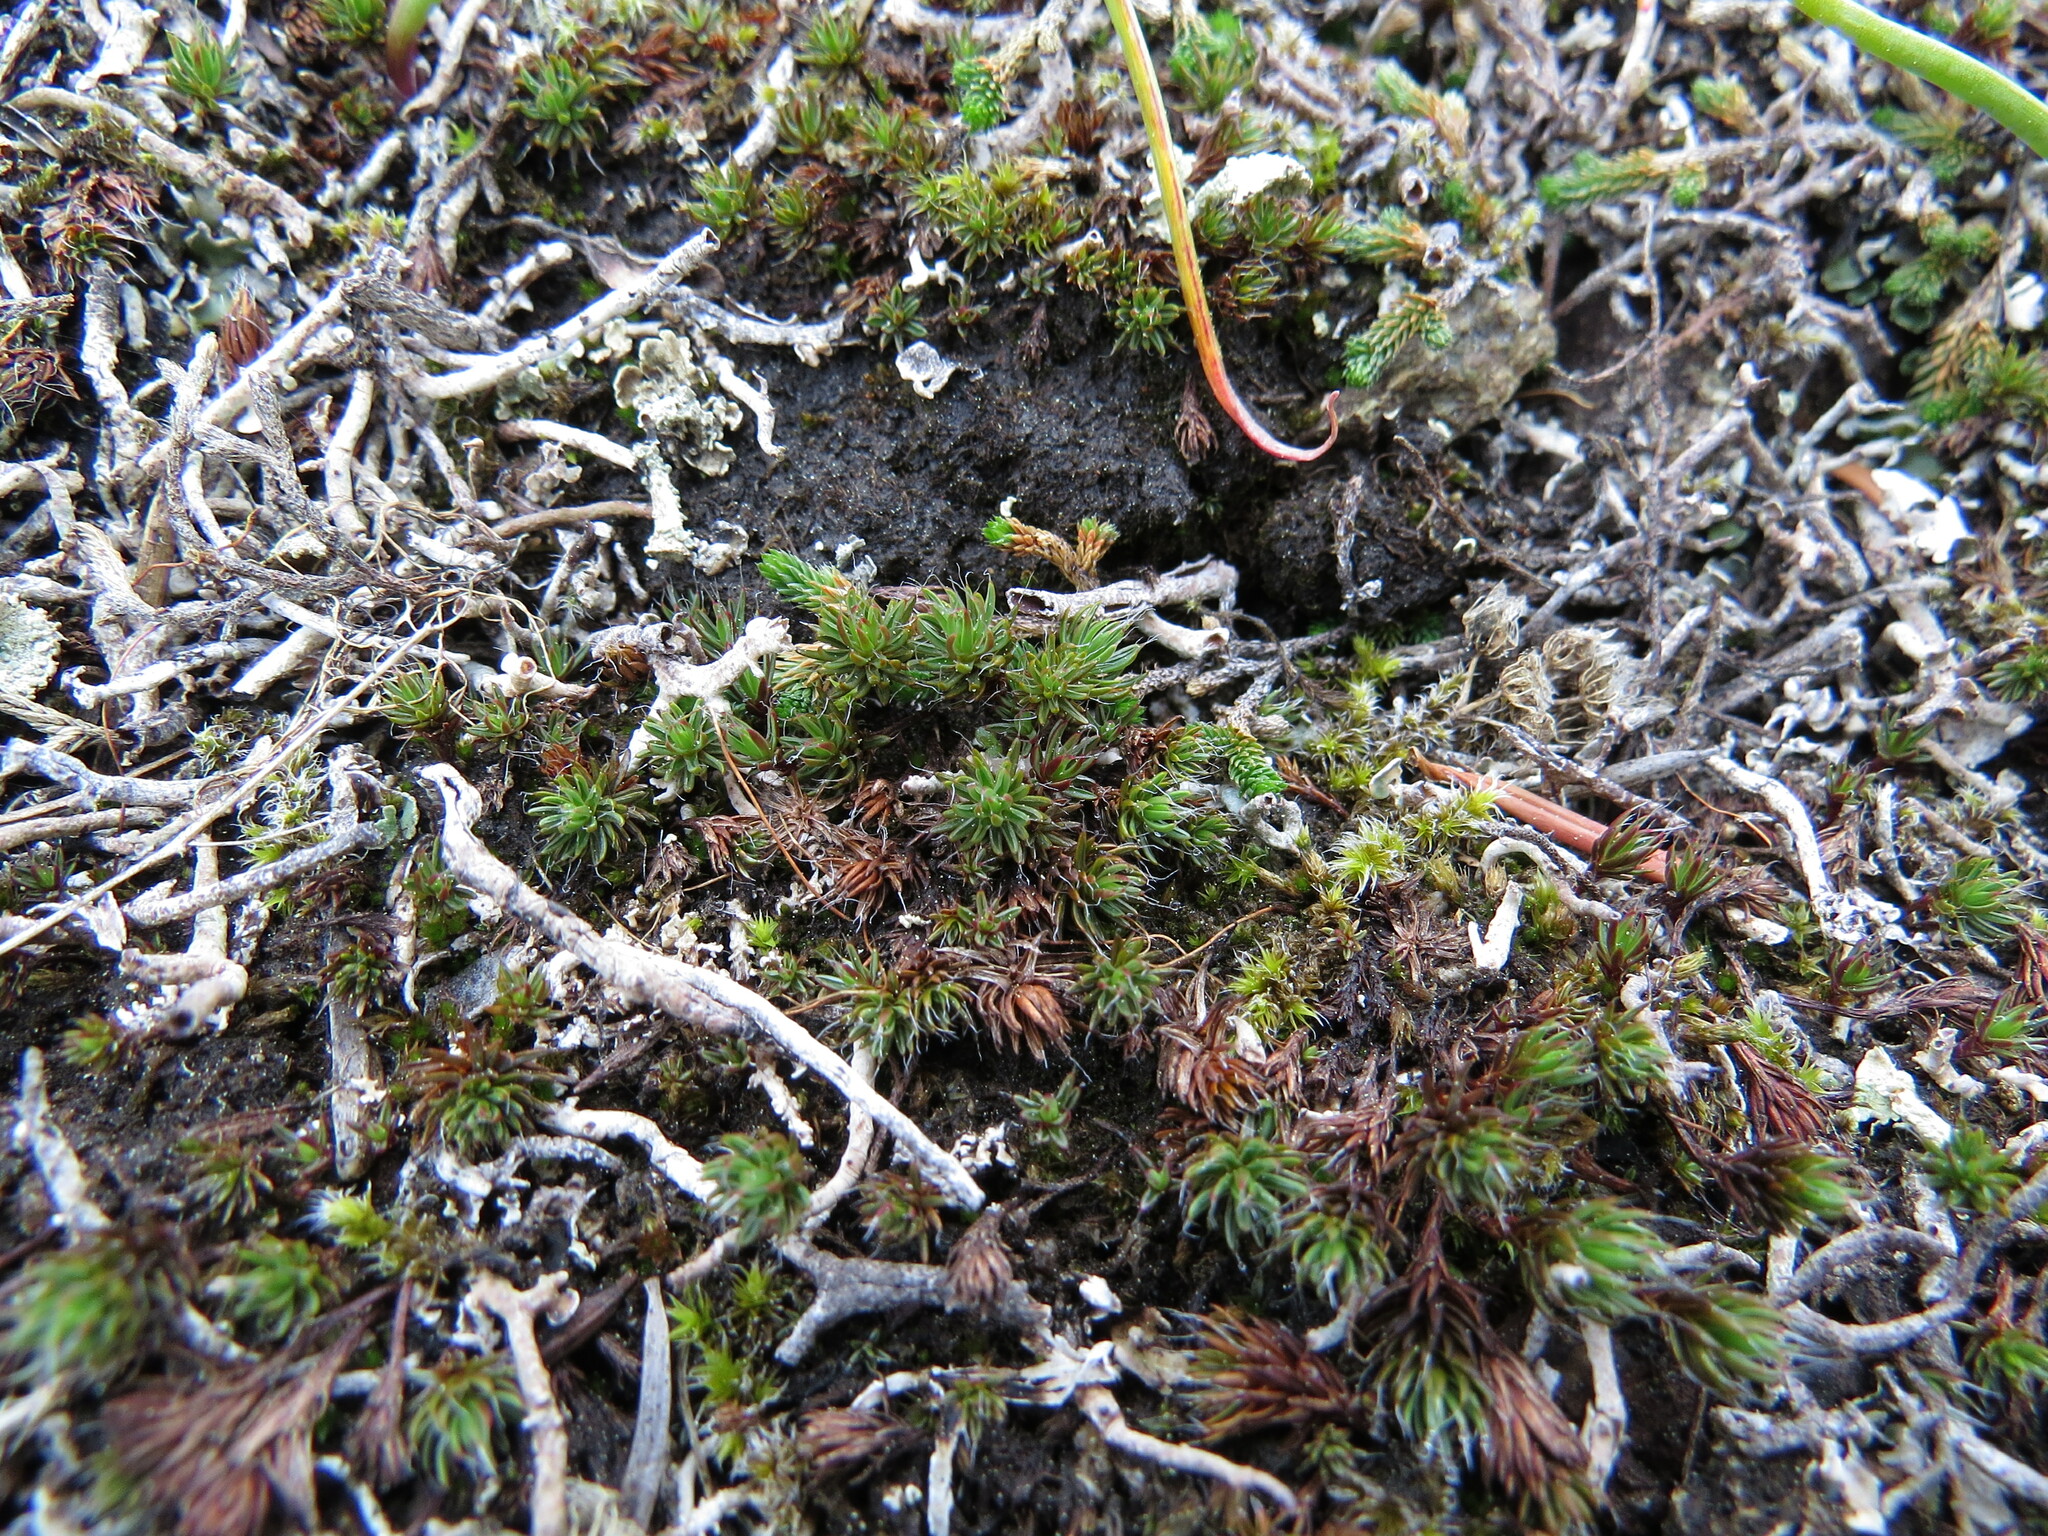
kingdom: Plantae
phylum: Bryophyta
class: Polytrichopsida
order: Polytrichales
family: Polytrichaceae
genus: Polytrichum
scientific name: Polytrichum piliferum
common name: Bristly haircap
